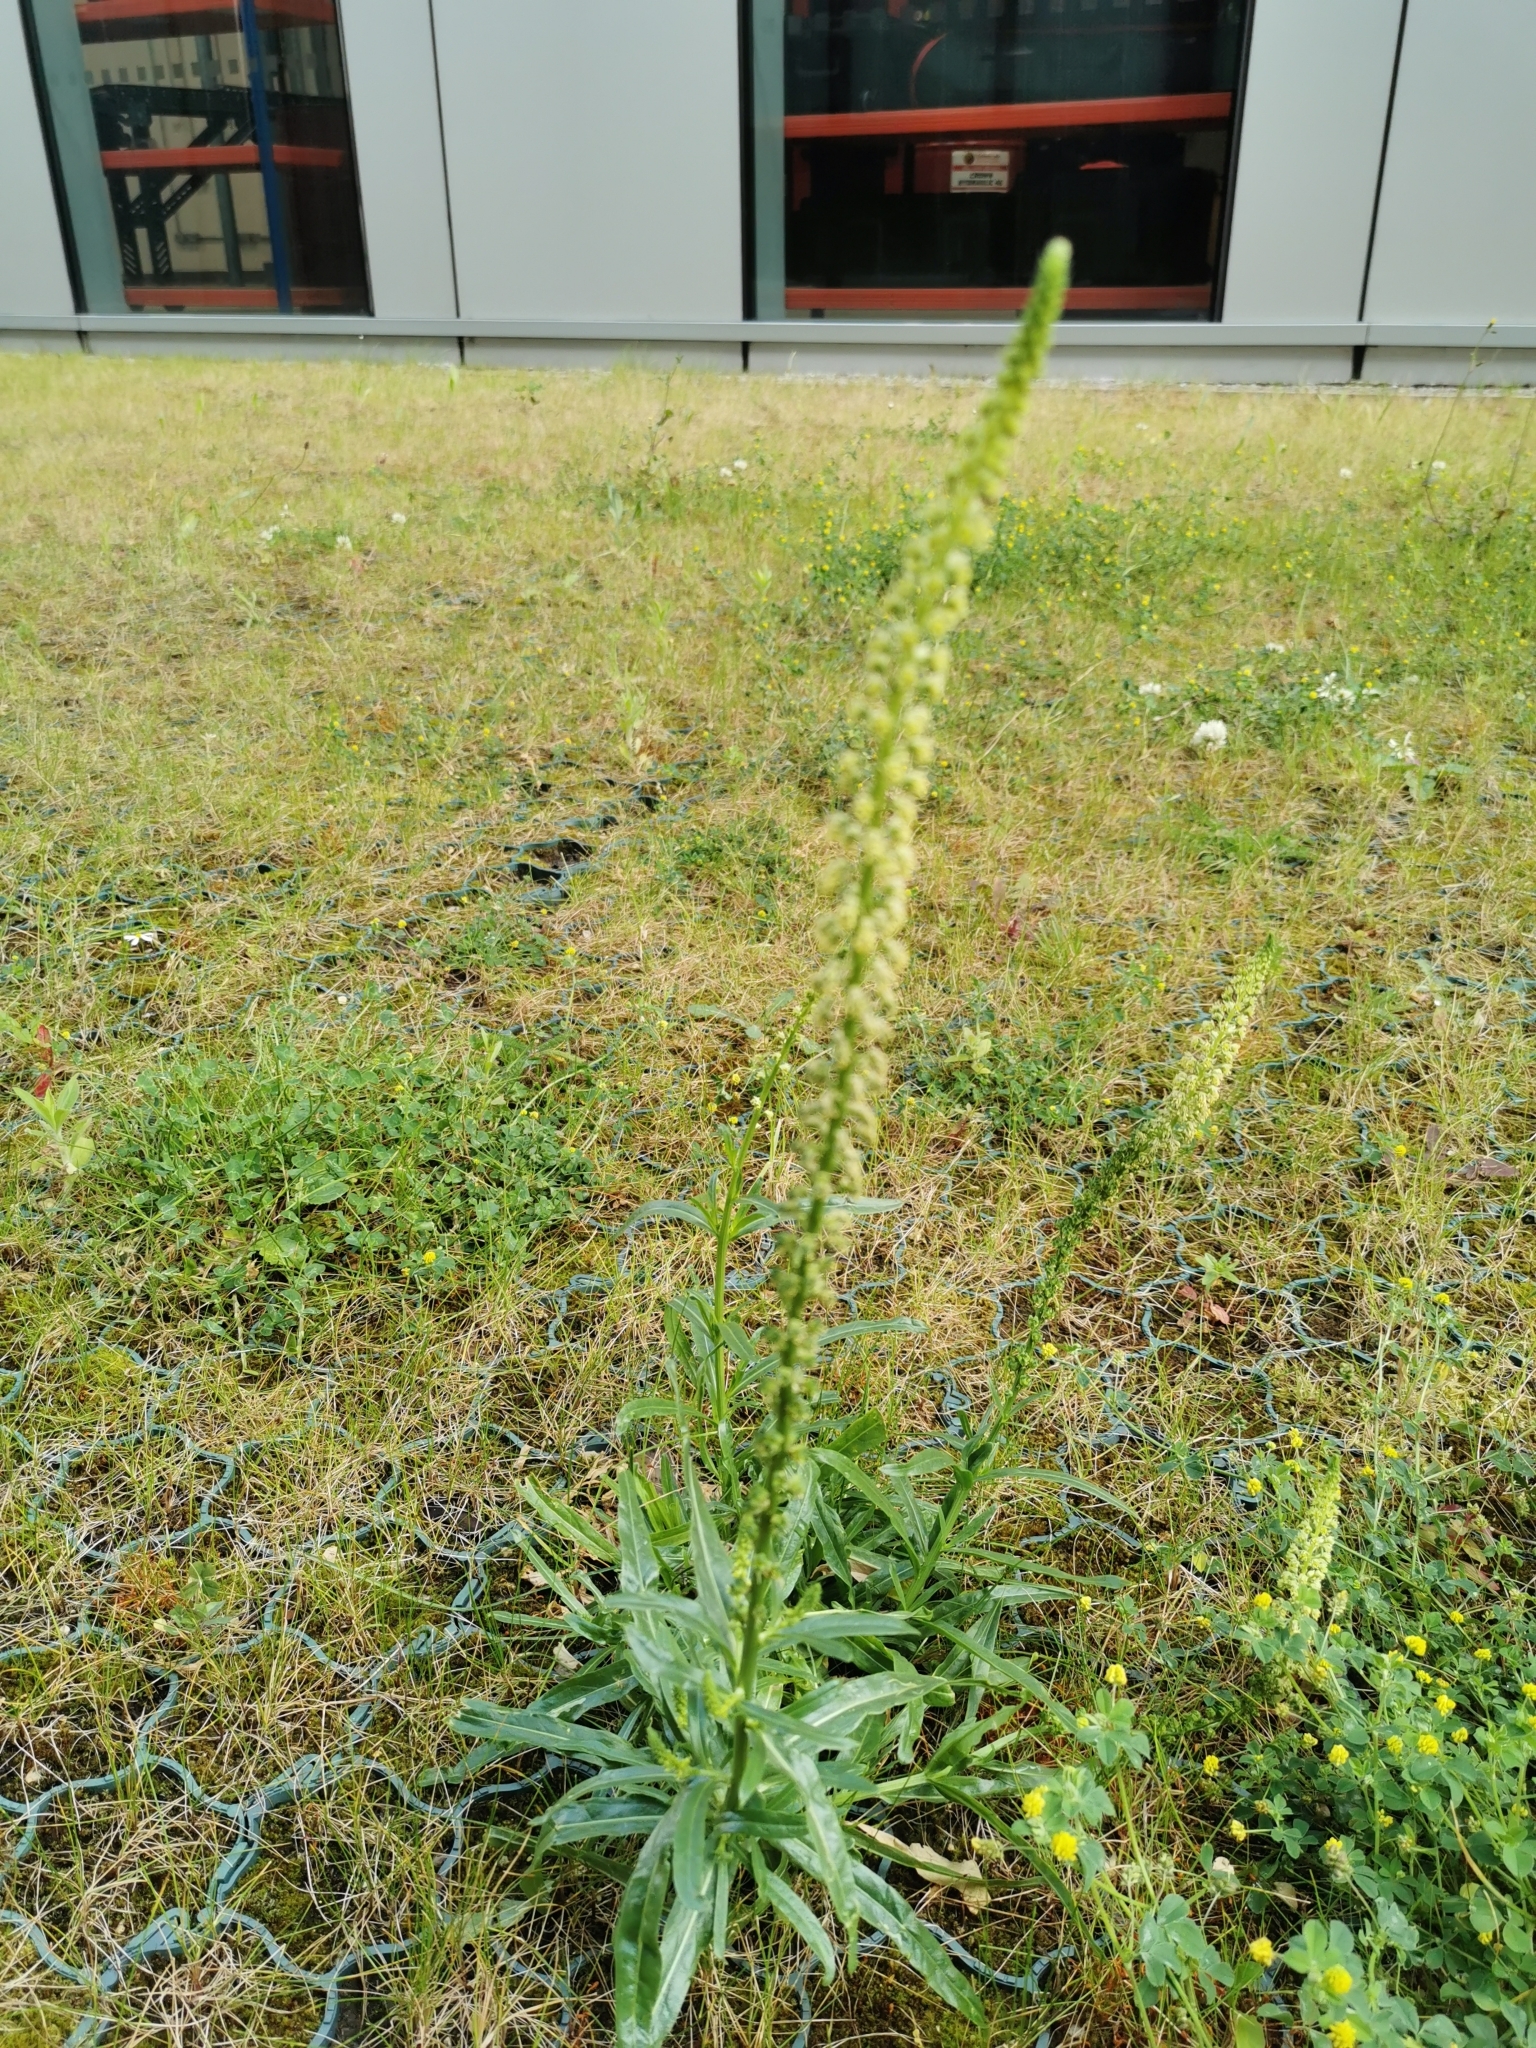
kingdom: Plantae
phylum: Tracheophyta
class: Magnoliopsida
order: Brassicales
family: Resedaceae
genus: Reseda
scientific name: Reseda luteola
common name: Weld
